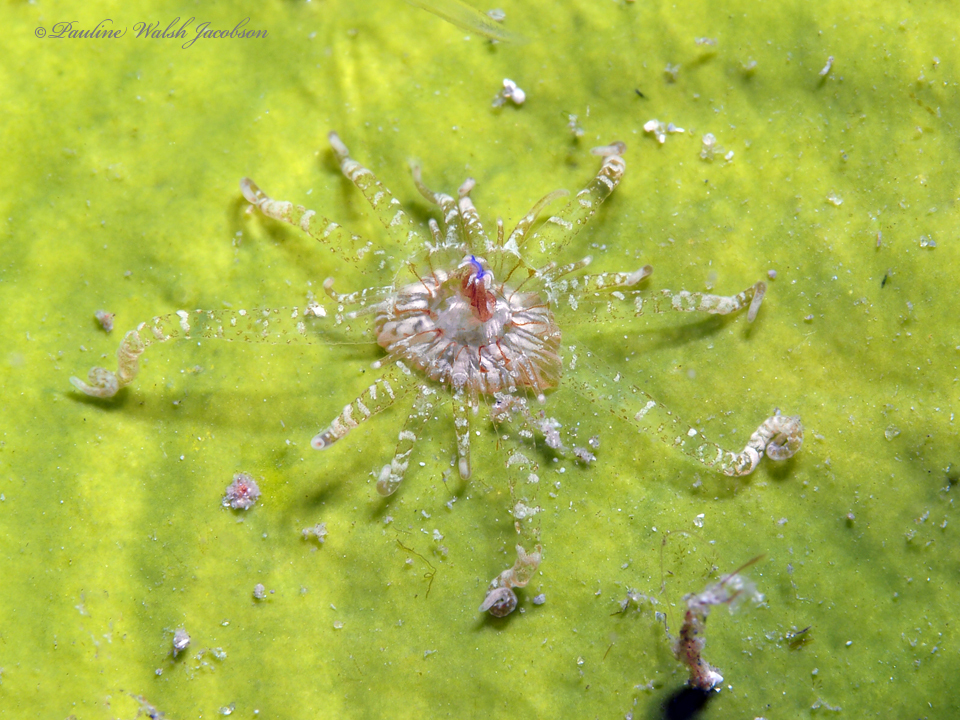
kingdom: Animalia
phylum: Cnidaria
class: Anthozoa
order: Actiniaria
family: Boloceroididae
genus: Bunodeopsis
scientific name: Bunodeopsis globulifera
